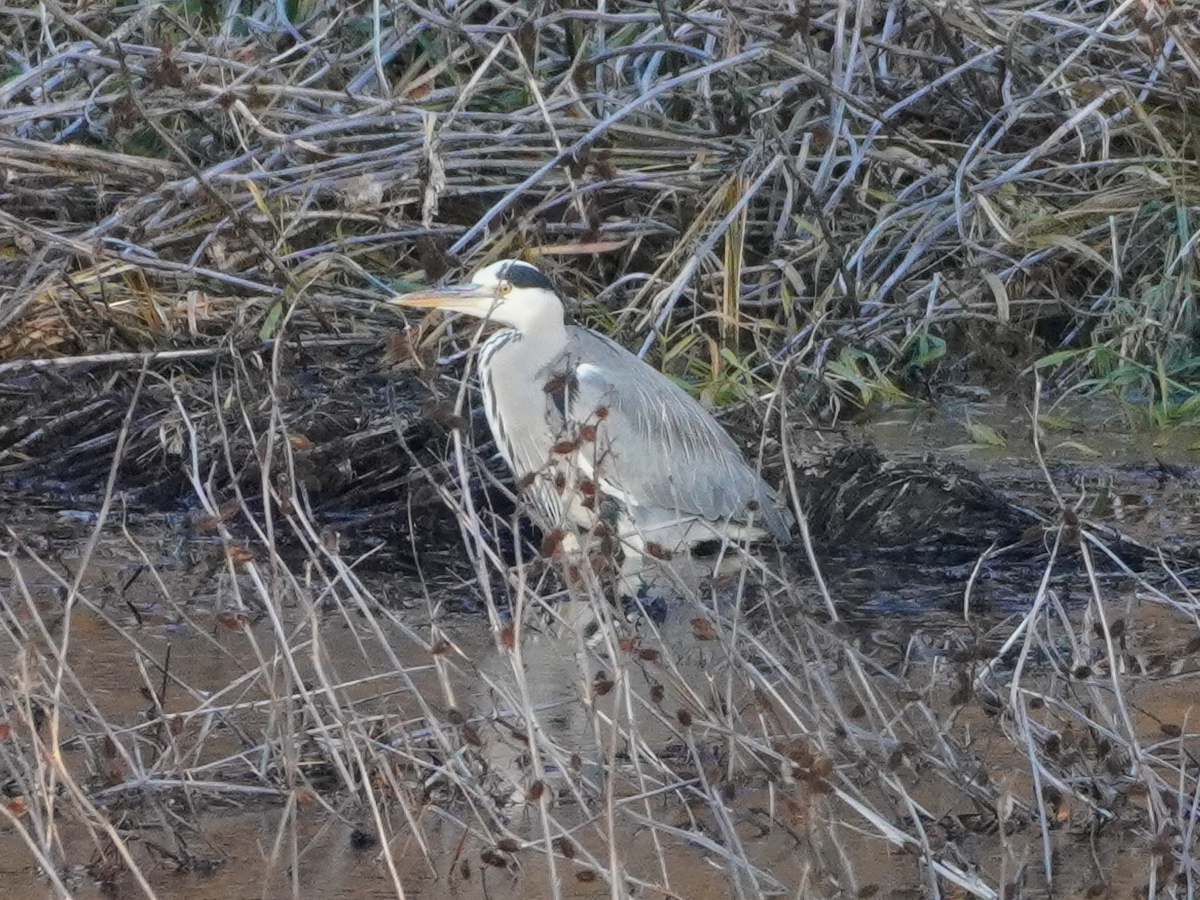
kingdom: Animalia
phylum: Chordata
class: Aves
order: Pelecaniformes
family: Ardeidae
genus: Ardea
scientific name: Ardea cinerea
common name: Grey heron
